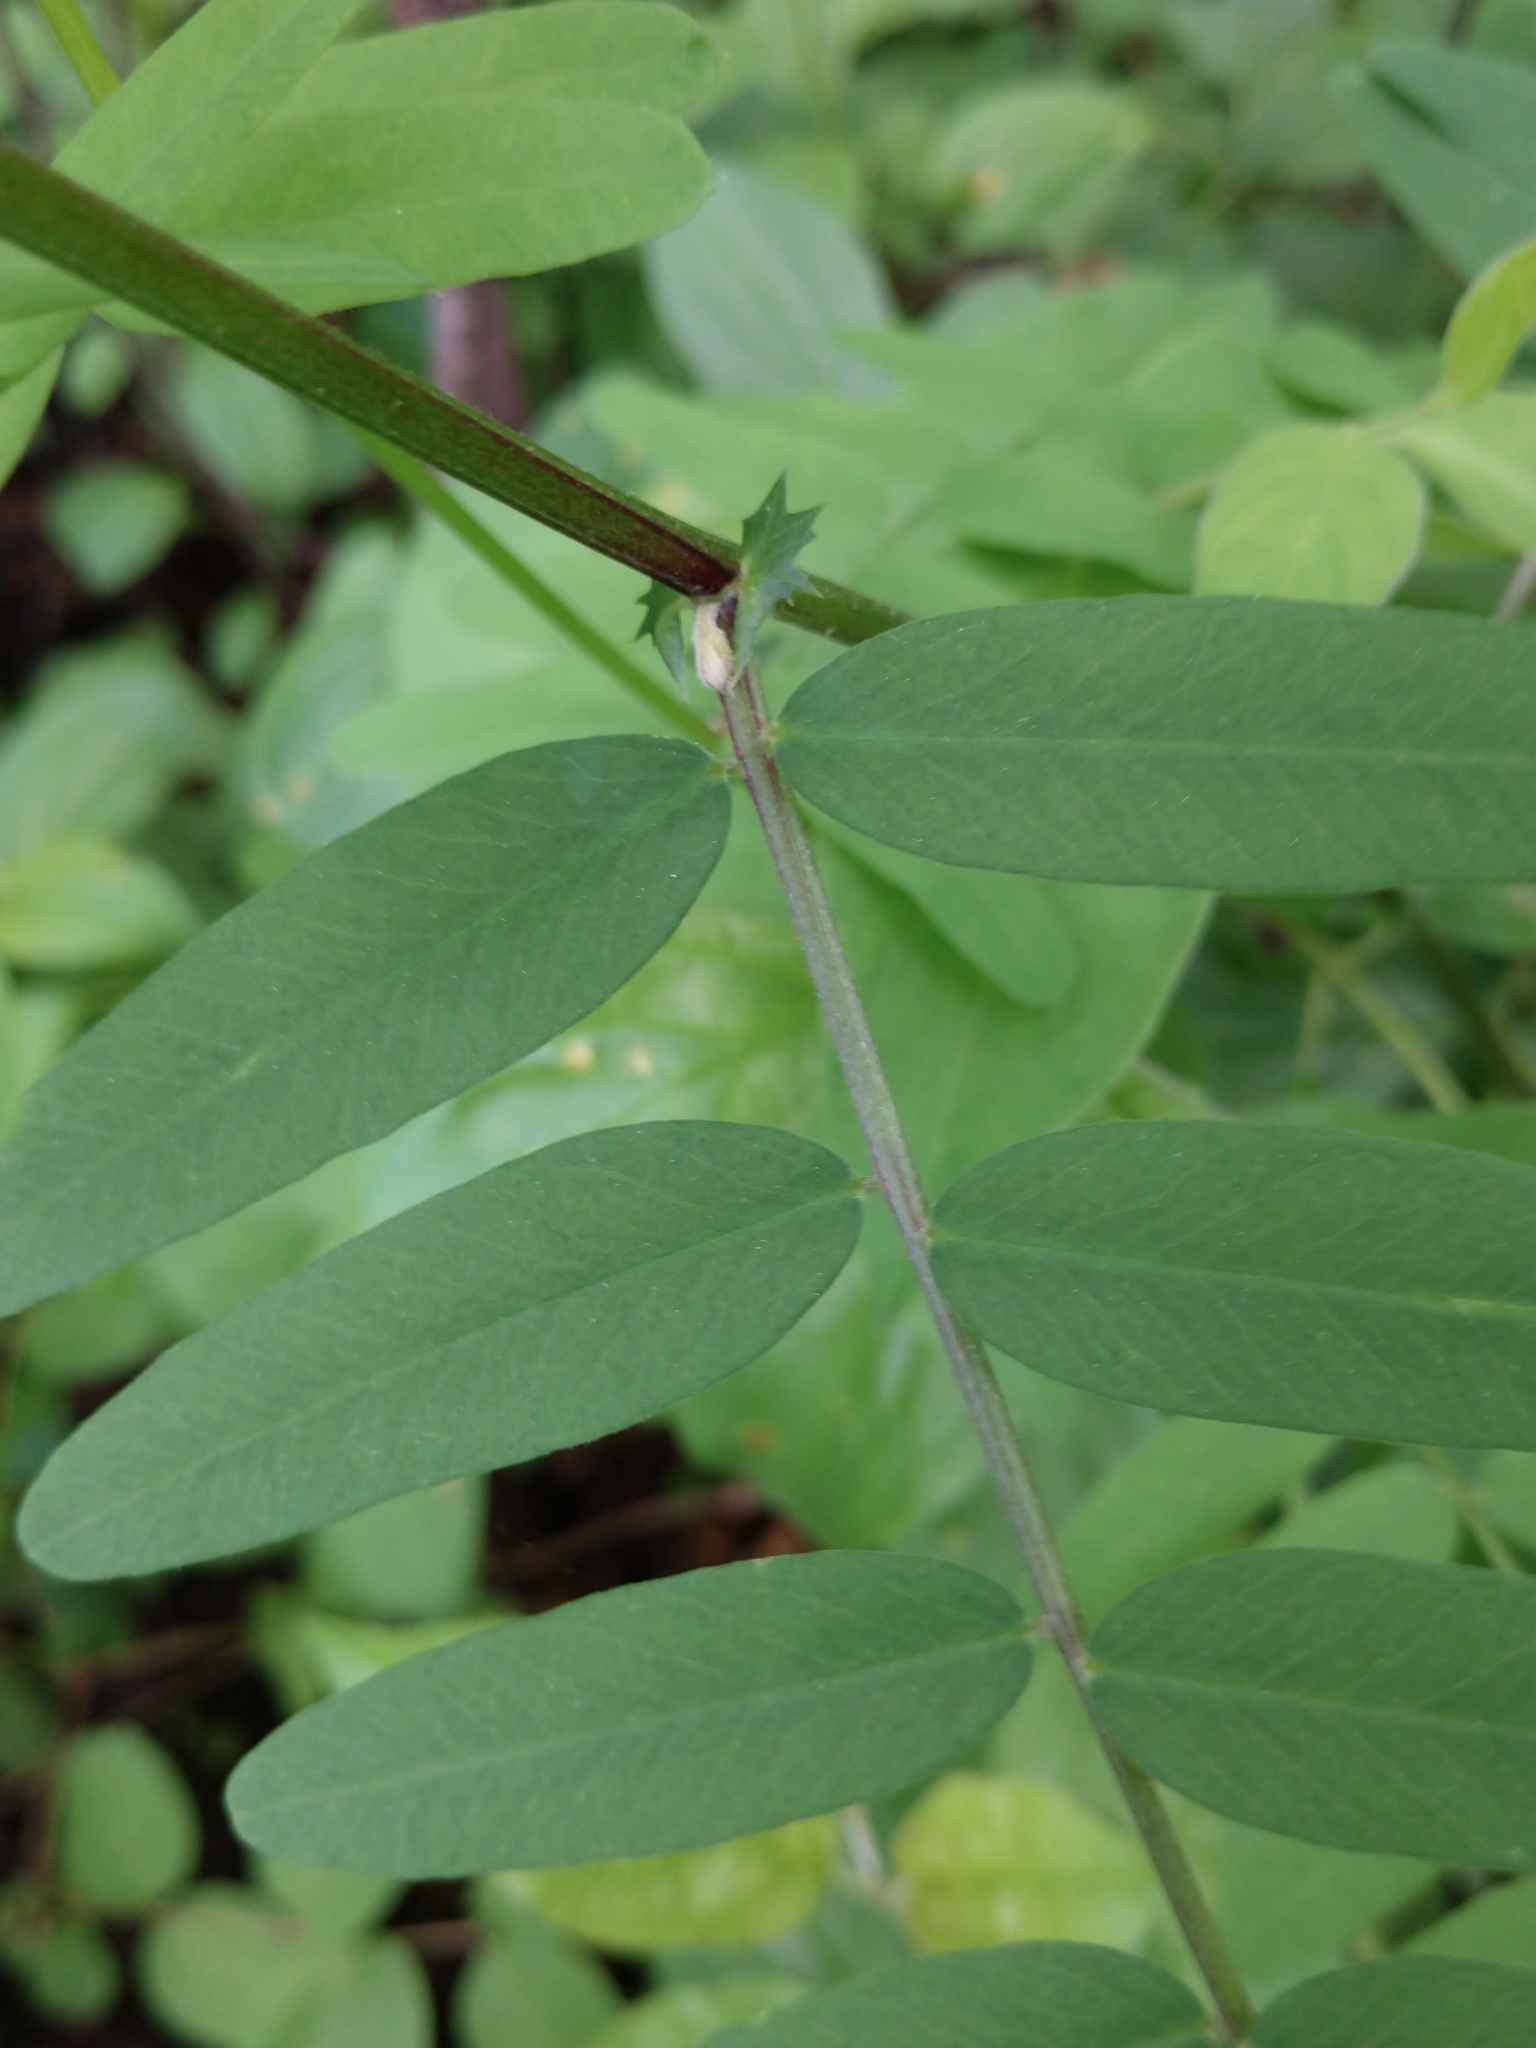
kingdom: Plantae
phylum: Tracheophyta
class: Magnoliopsida
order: Fabales
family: Fabaceae
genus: Vicia
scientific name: Vicia americana
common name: American vetch
